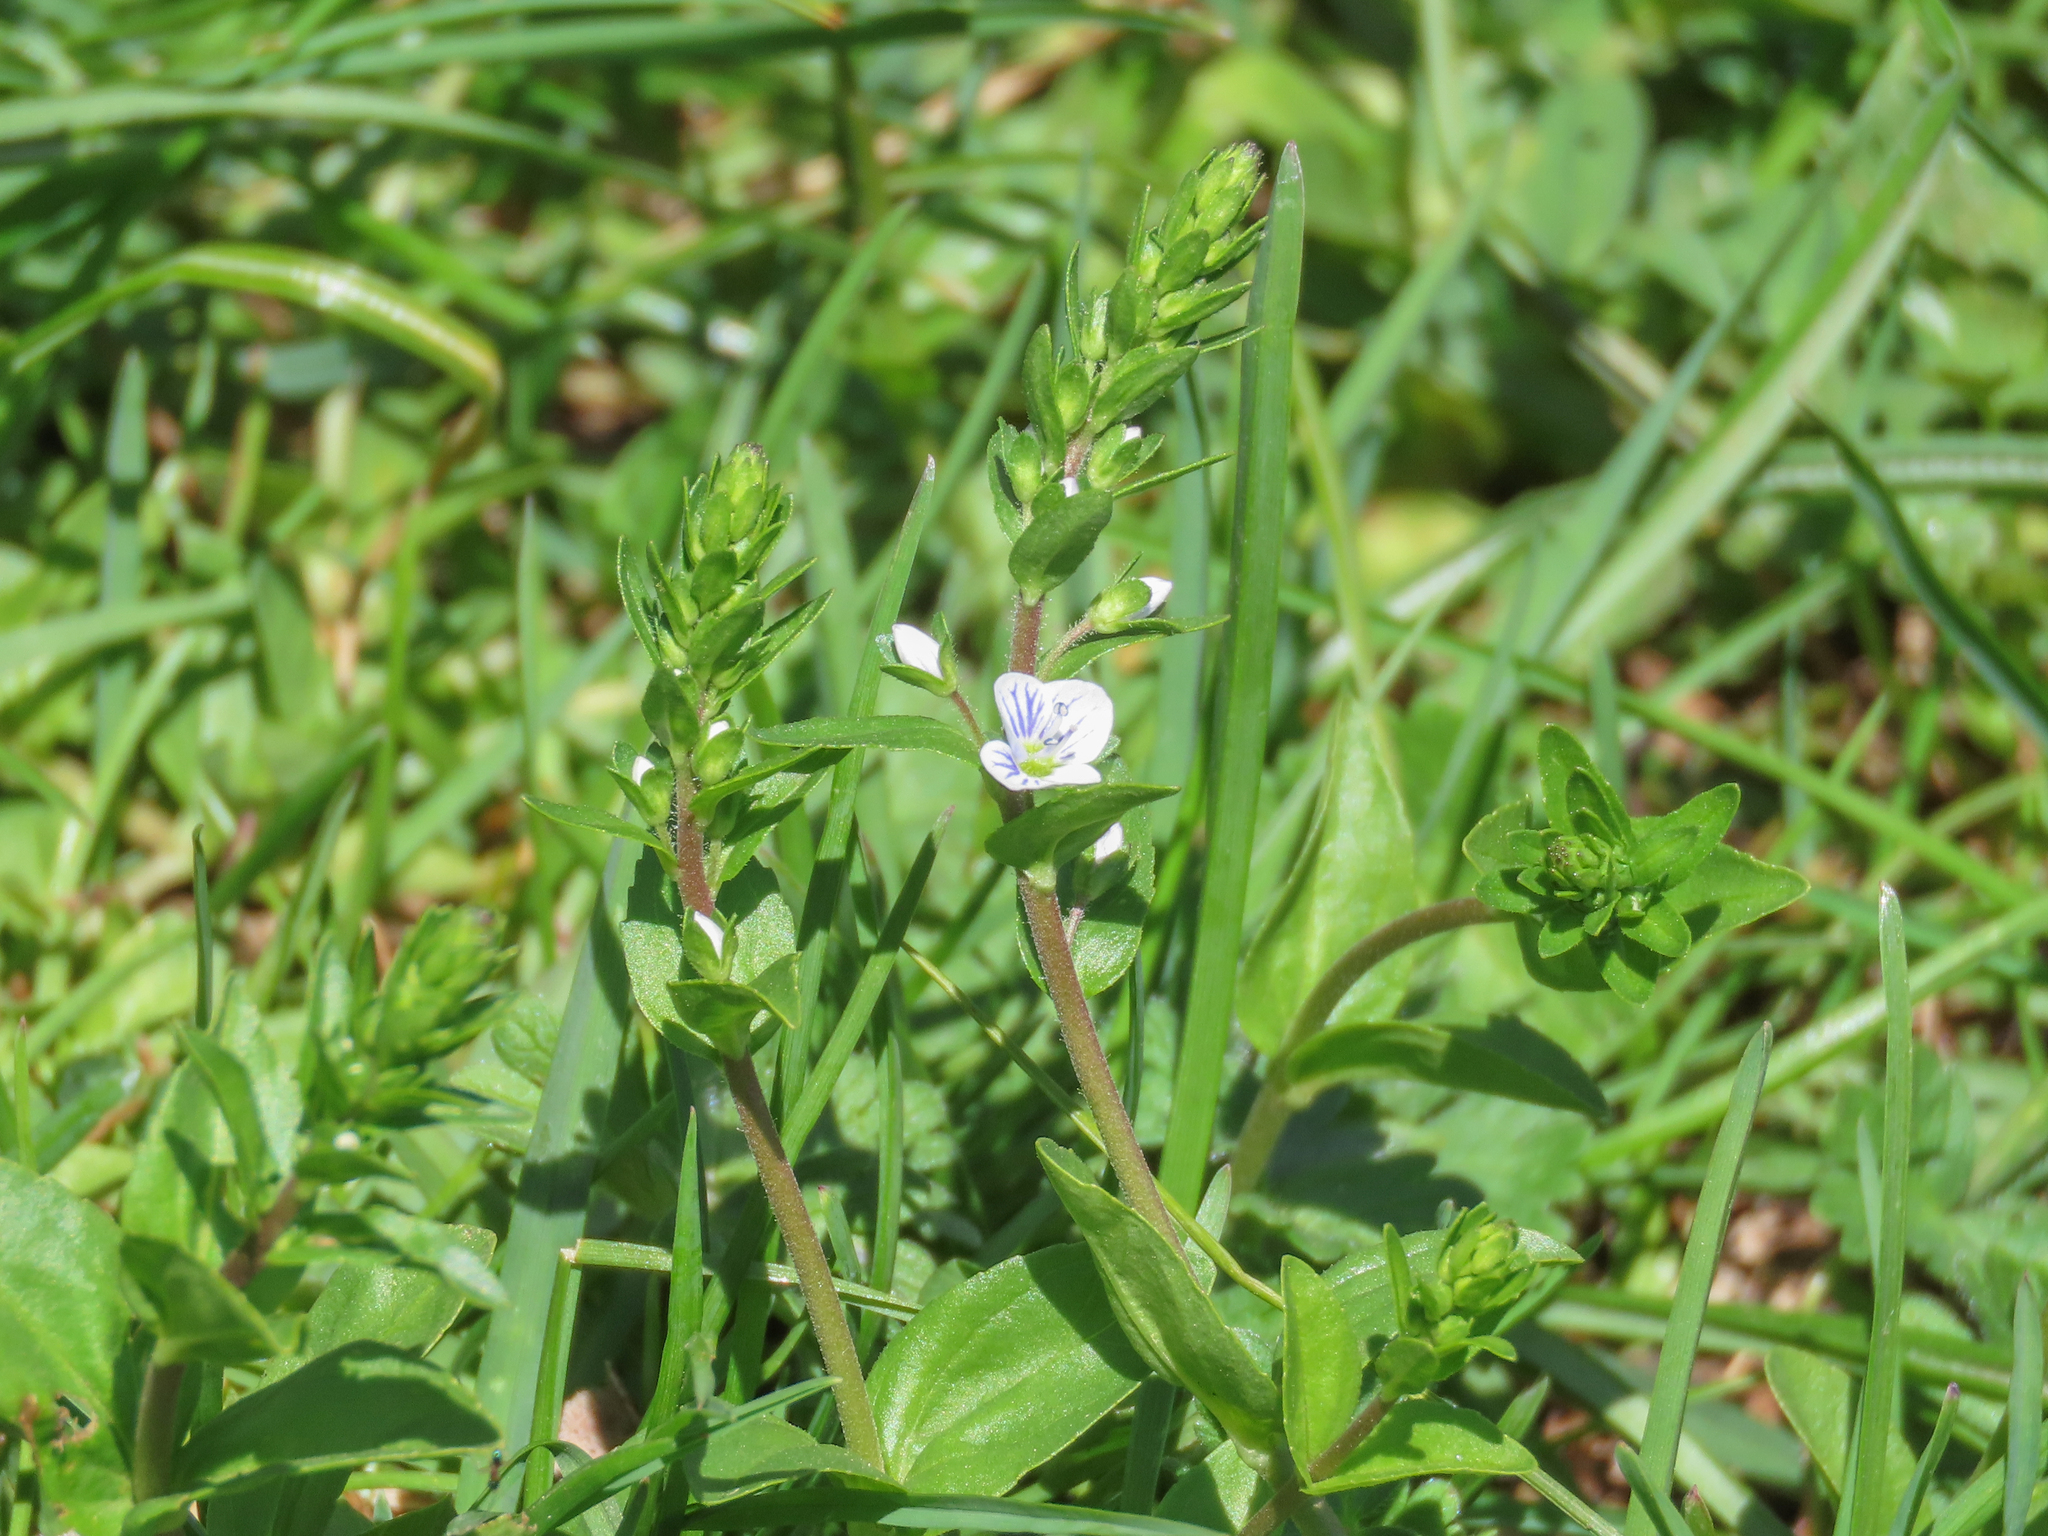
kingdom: Plantae
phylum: Tracheophyta
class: Magnoliopsida
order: Lamiales
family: Plantaginaceae
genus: Veronica
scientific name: Veronica serpyllifolia
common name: Thyme-leaved speedwell
